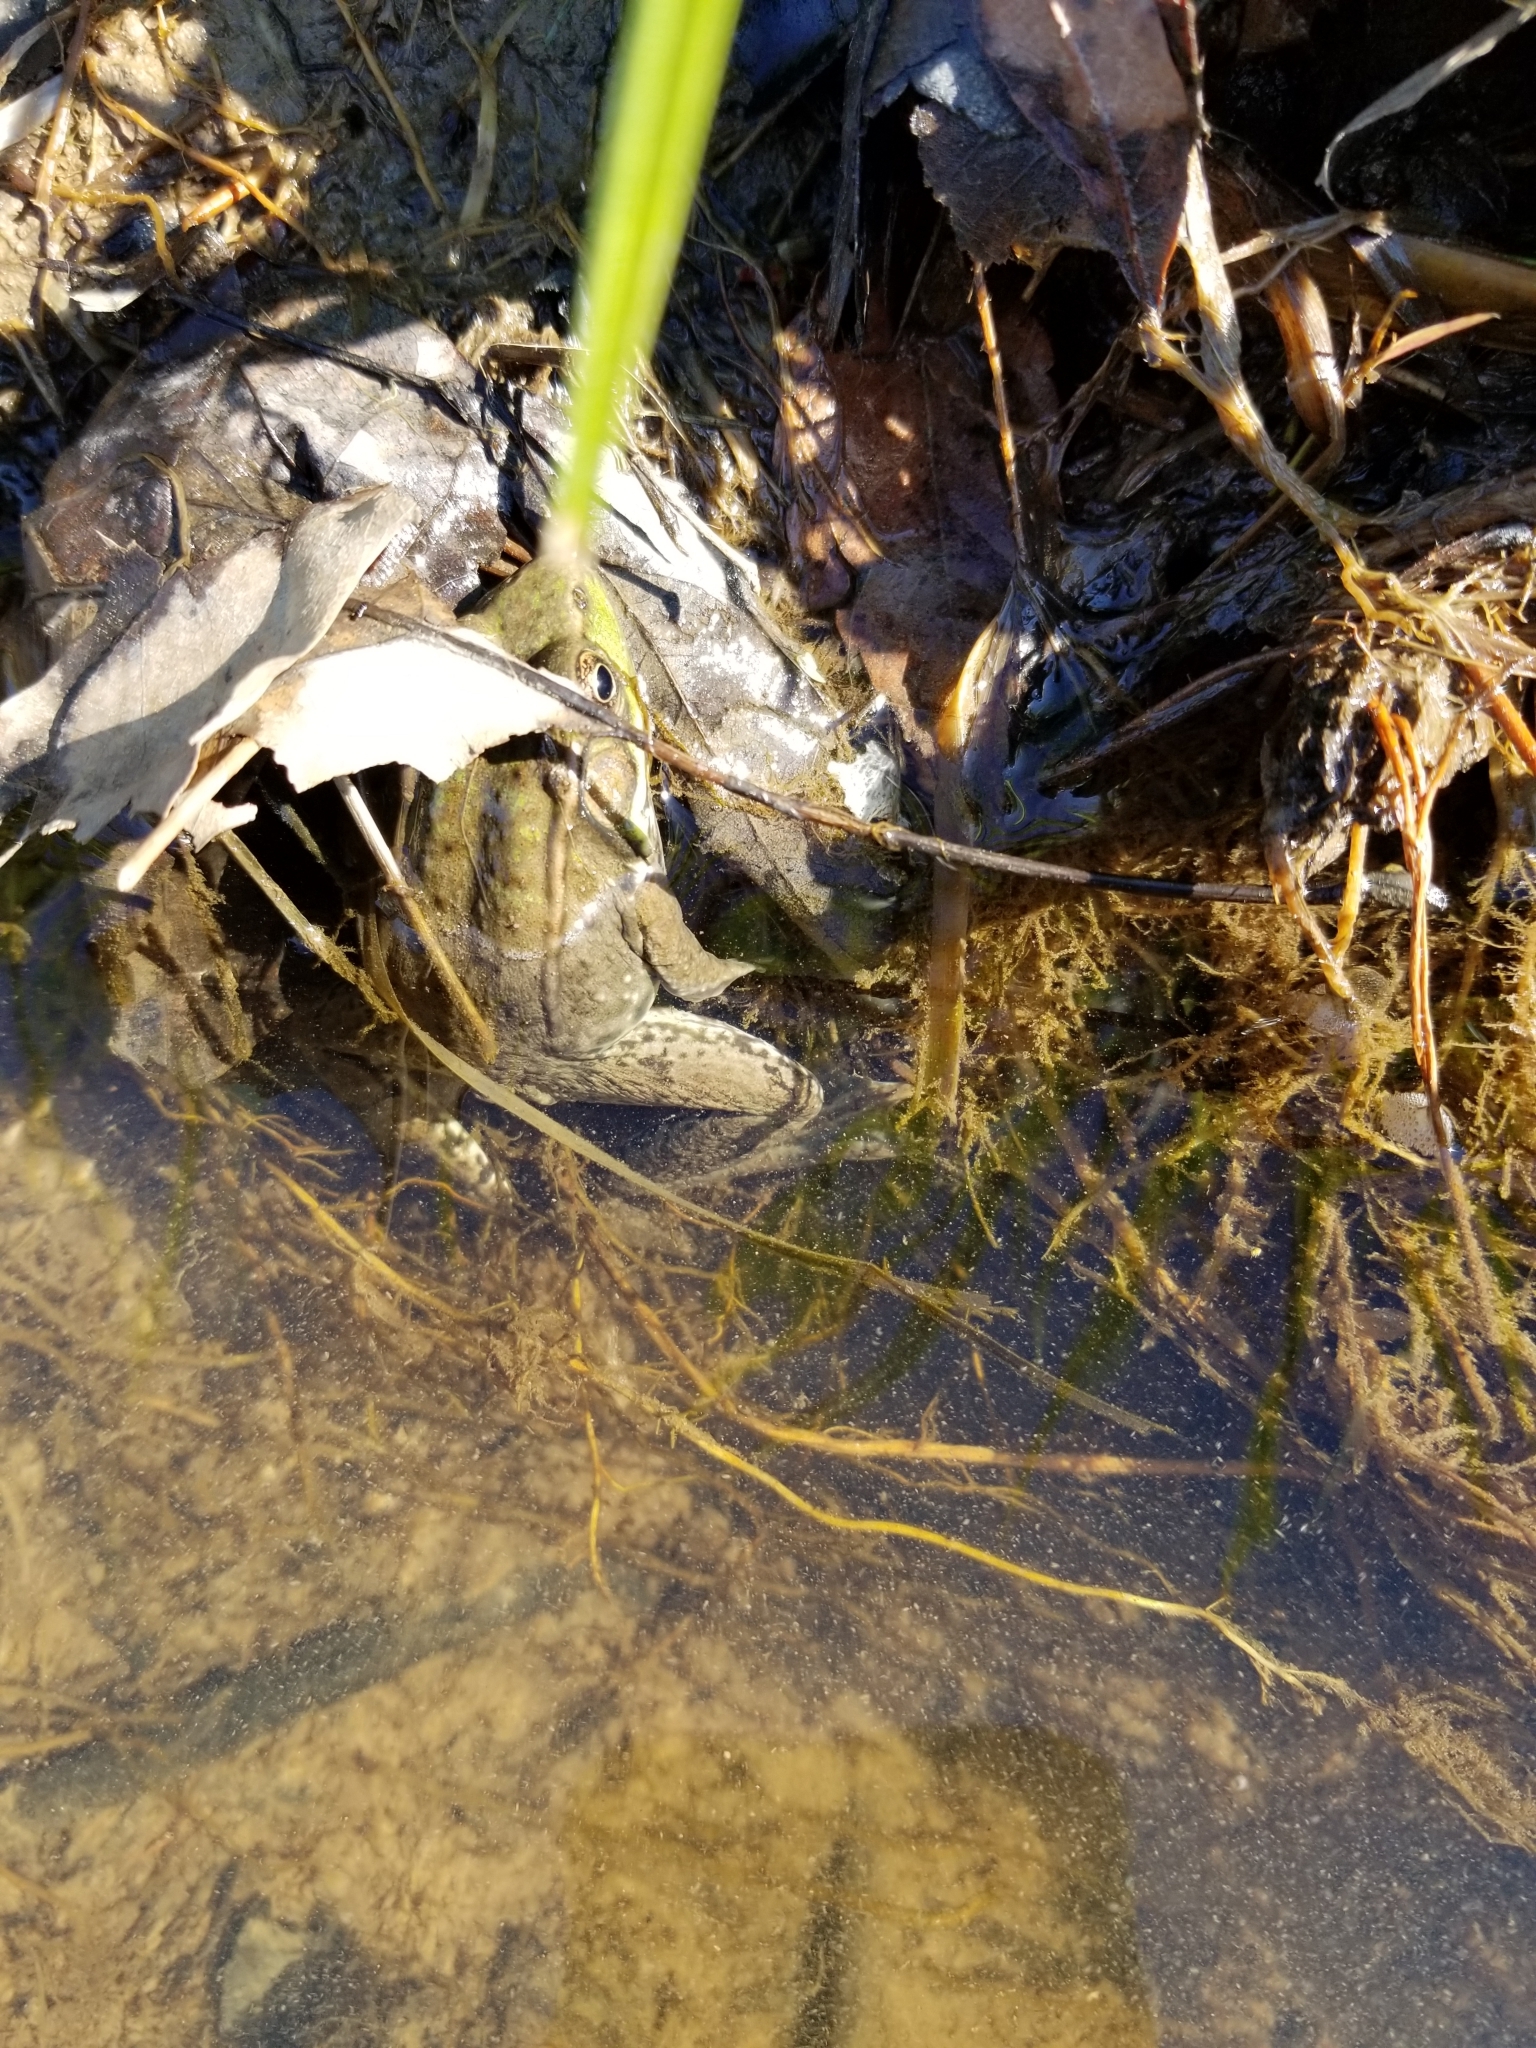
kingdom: Animalia
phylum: Chordata
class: Amphibia
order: Anura
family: Ranidae
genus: Lithobates
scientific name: Lithobates clamitans
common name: Green frog
